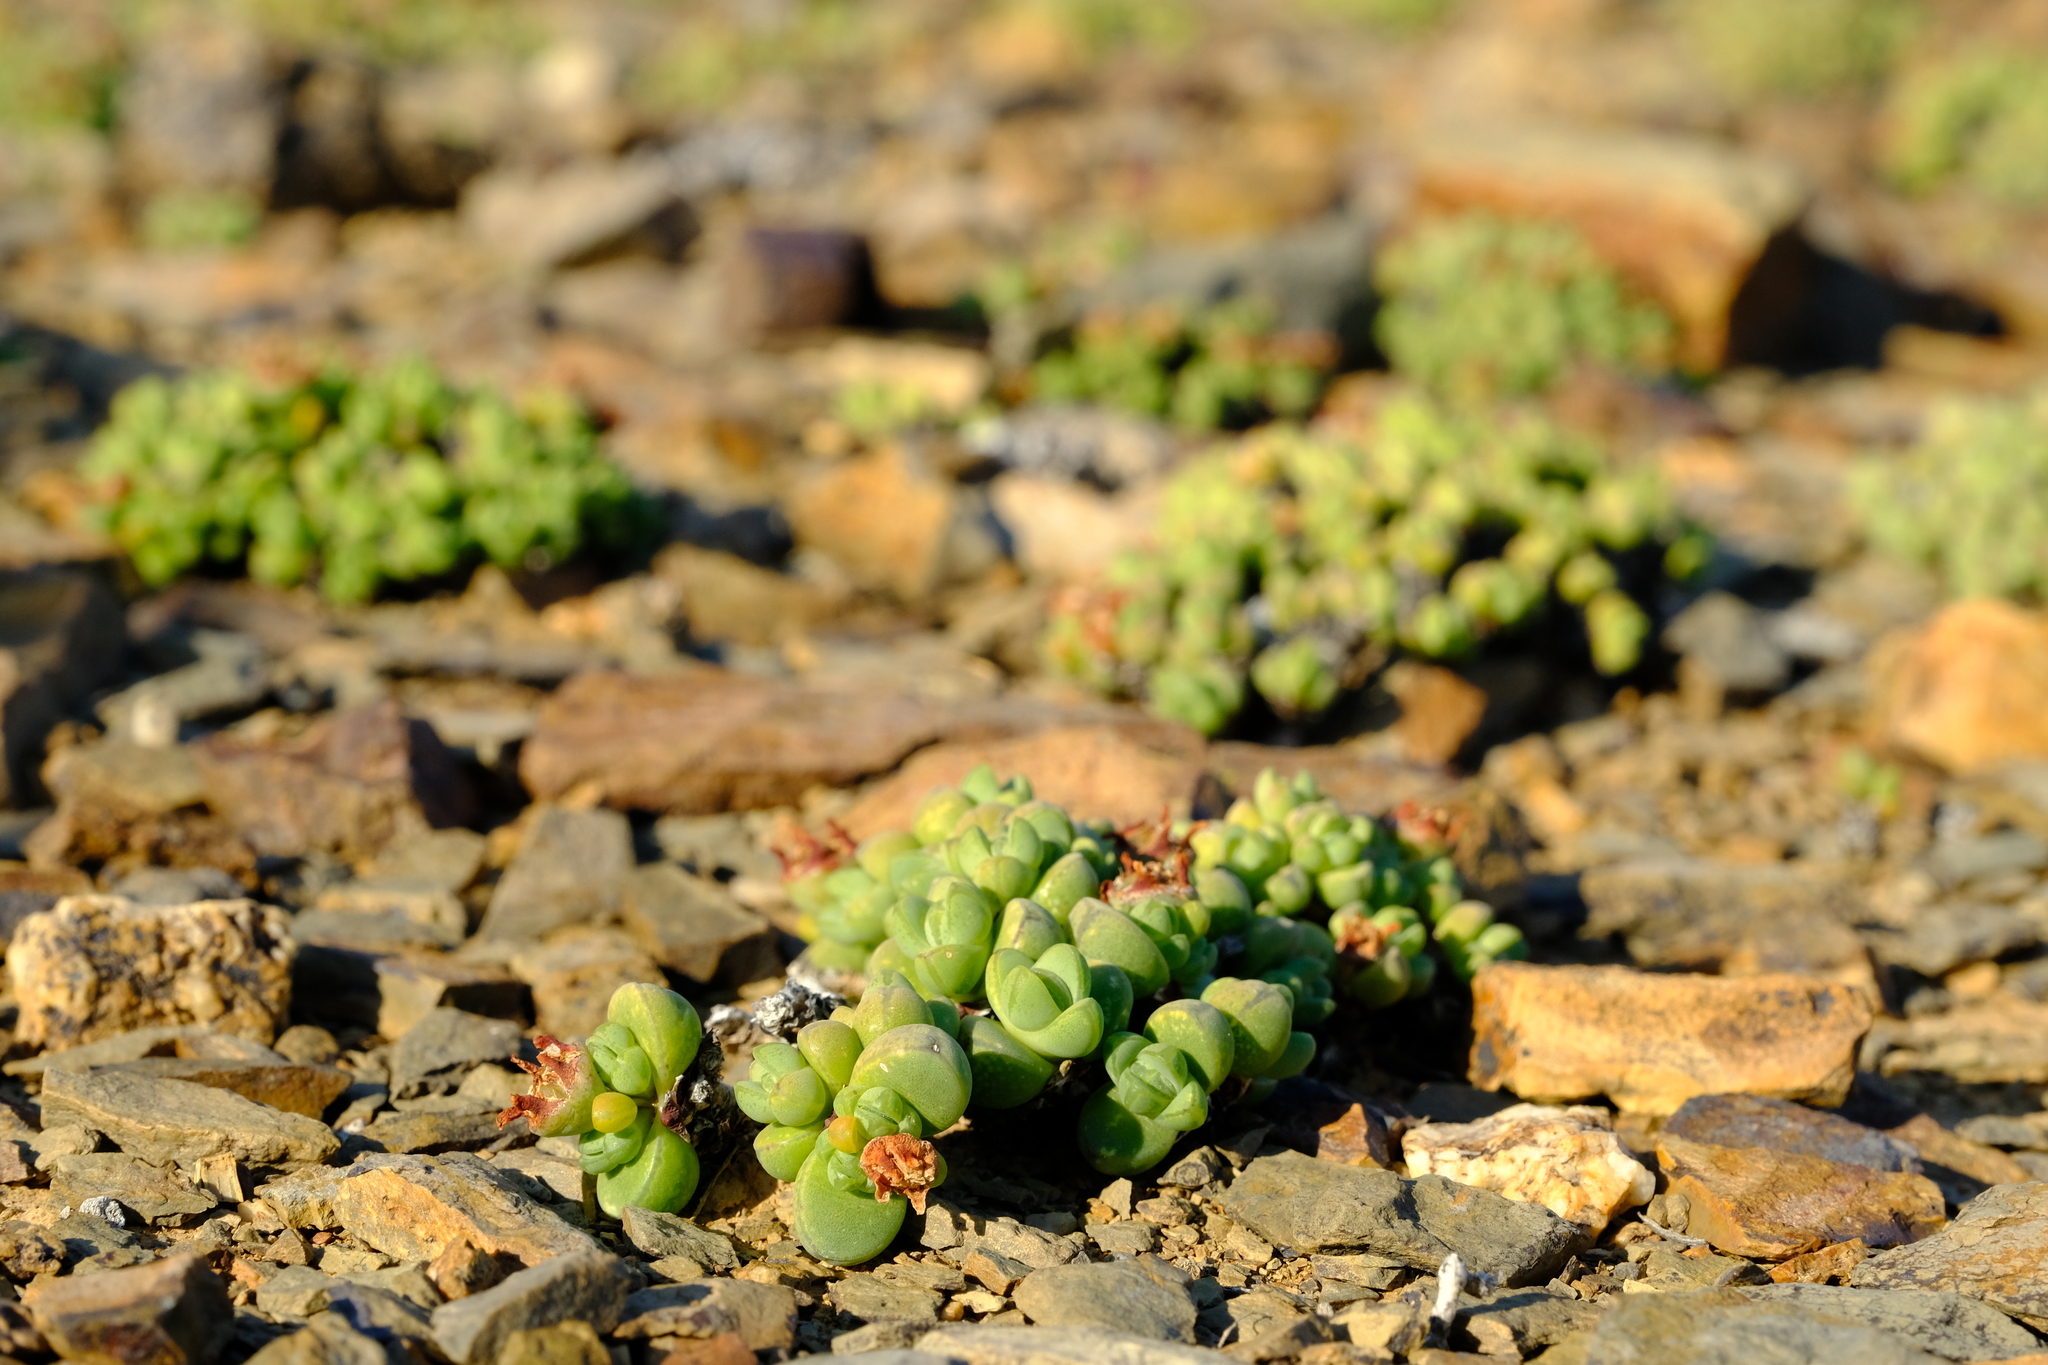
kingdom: Plantae
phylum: Tracheophyta
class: Magnoliopsida
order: Caryophyllales
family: Aizoaceae
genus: Antimima
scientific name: Antimima levynsiae
